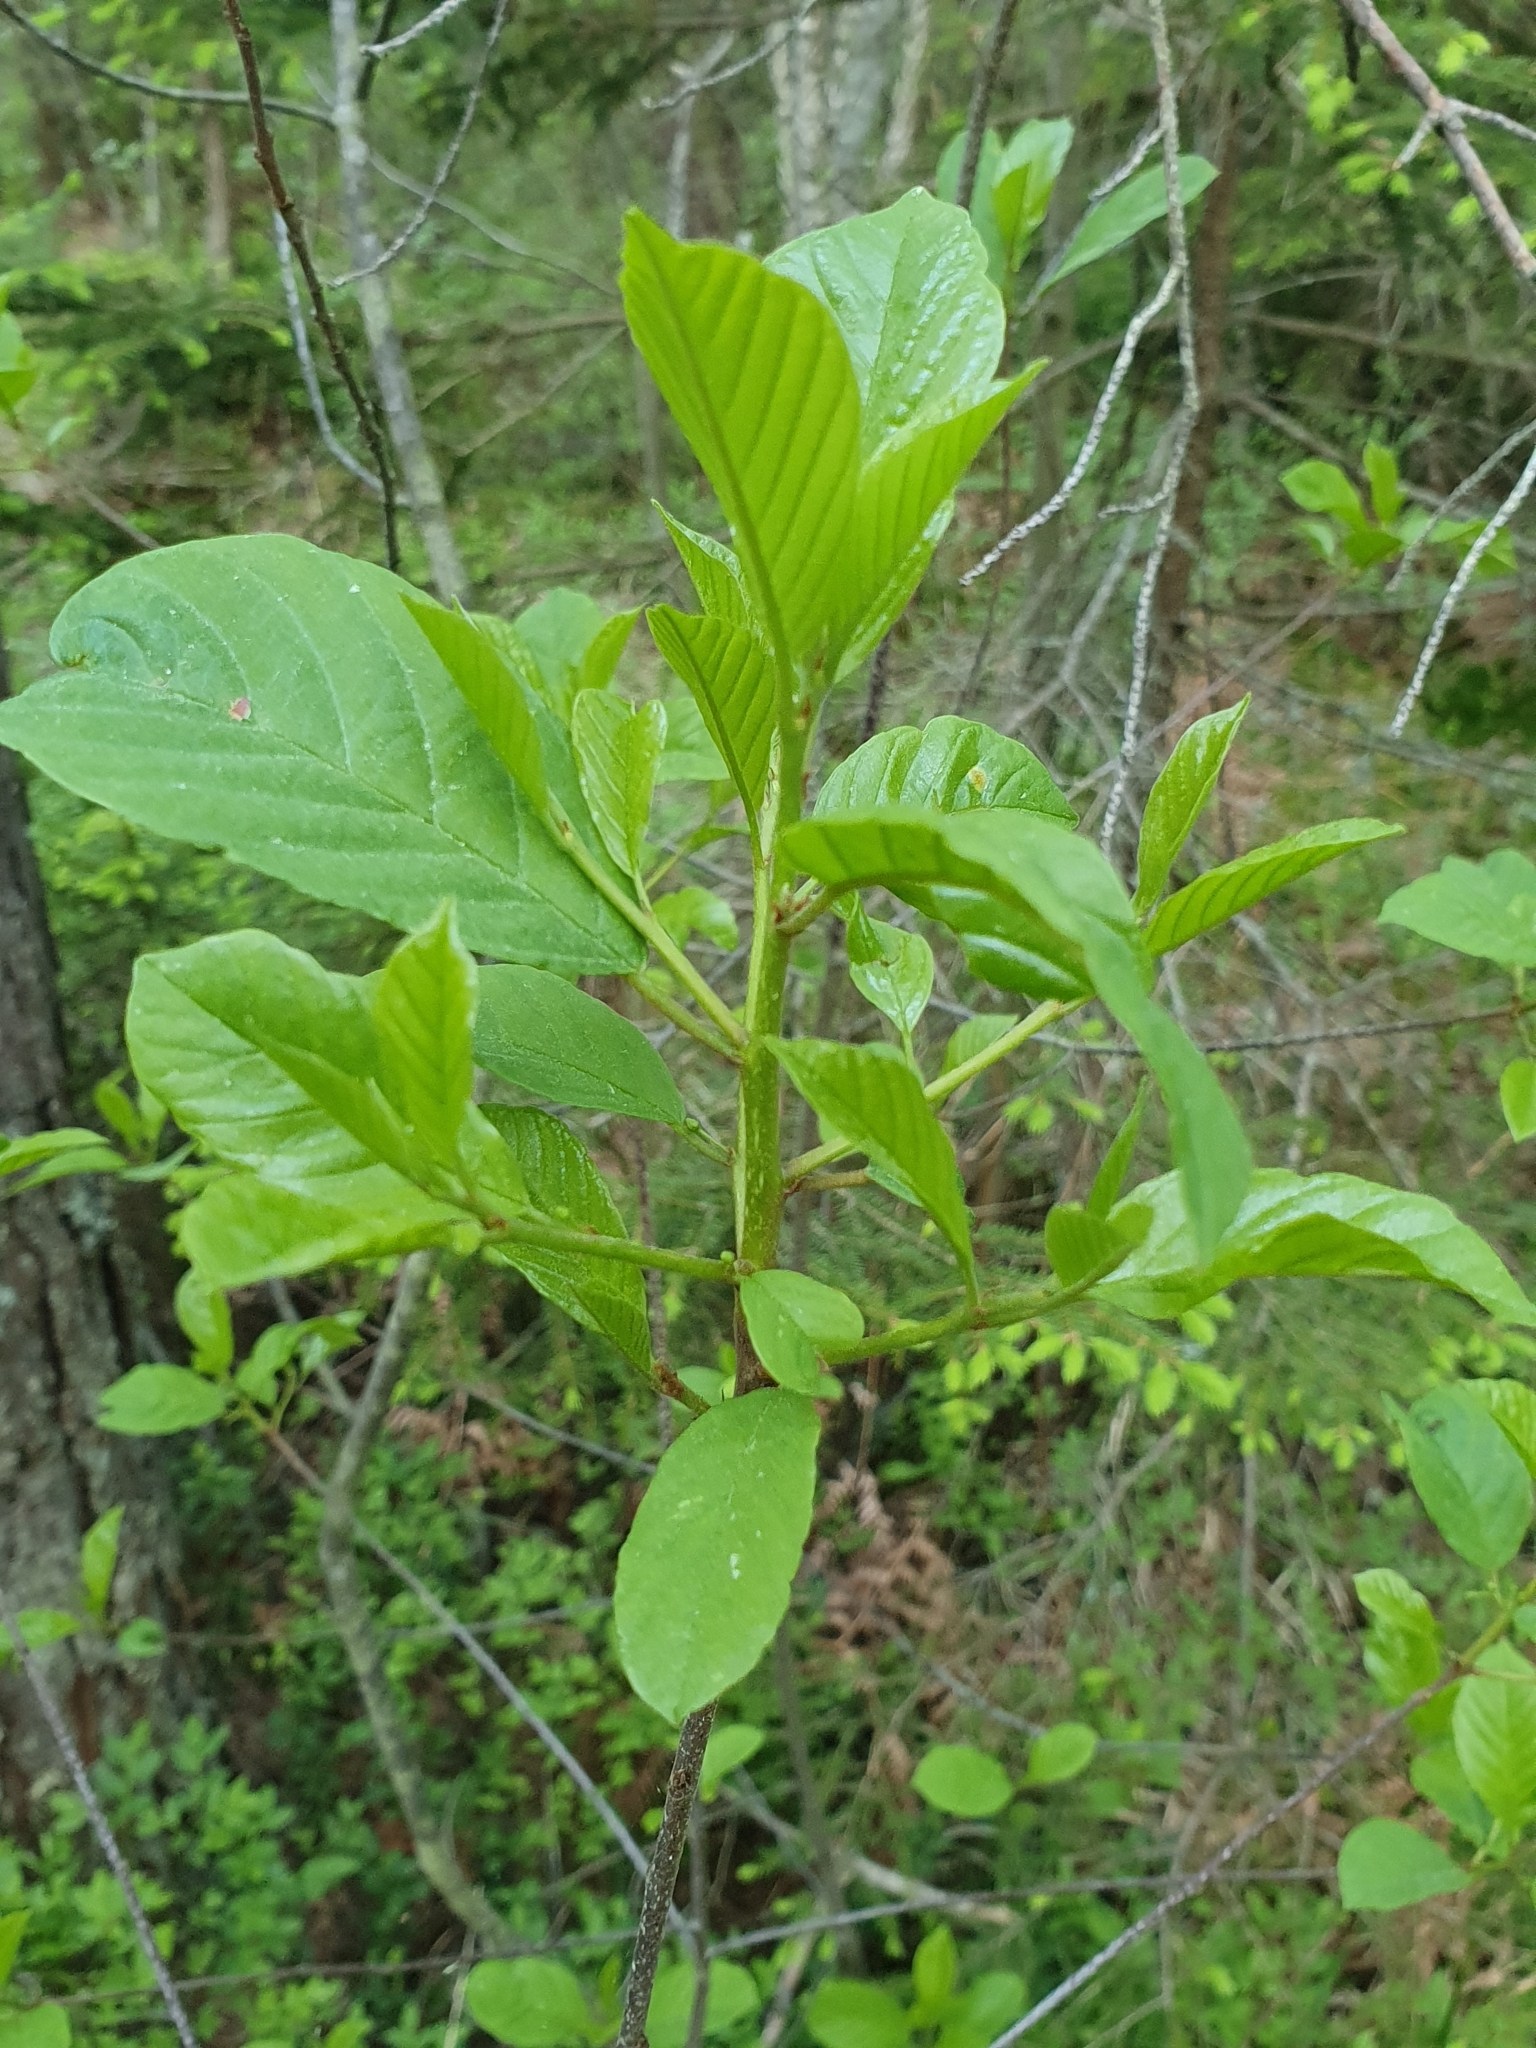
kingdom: Plantae
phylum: Tracheophyta
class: Magnoliopsida
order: Rosales
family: Rhamnaceae
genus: Frangula
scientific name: Frangula alnus
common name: Alder buckthorn
